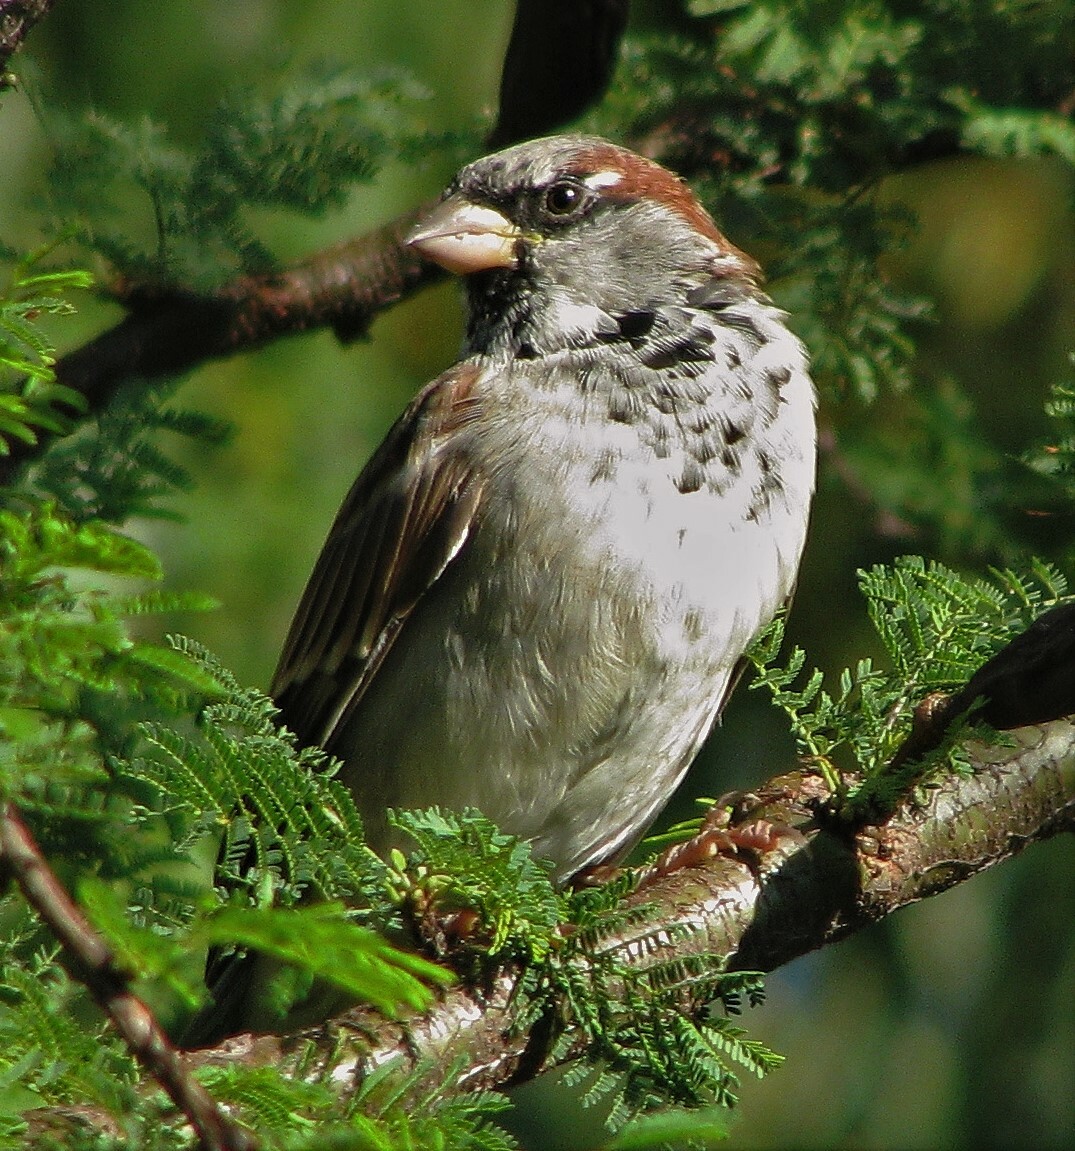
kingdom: Animalia
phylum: Chordata
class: Aves
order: Passeriformes
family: Passeridae
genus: Passer
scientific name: Passer domesticus
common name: House sparrow
